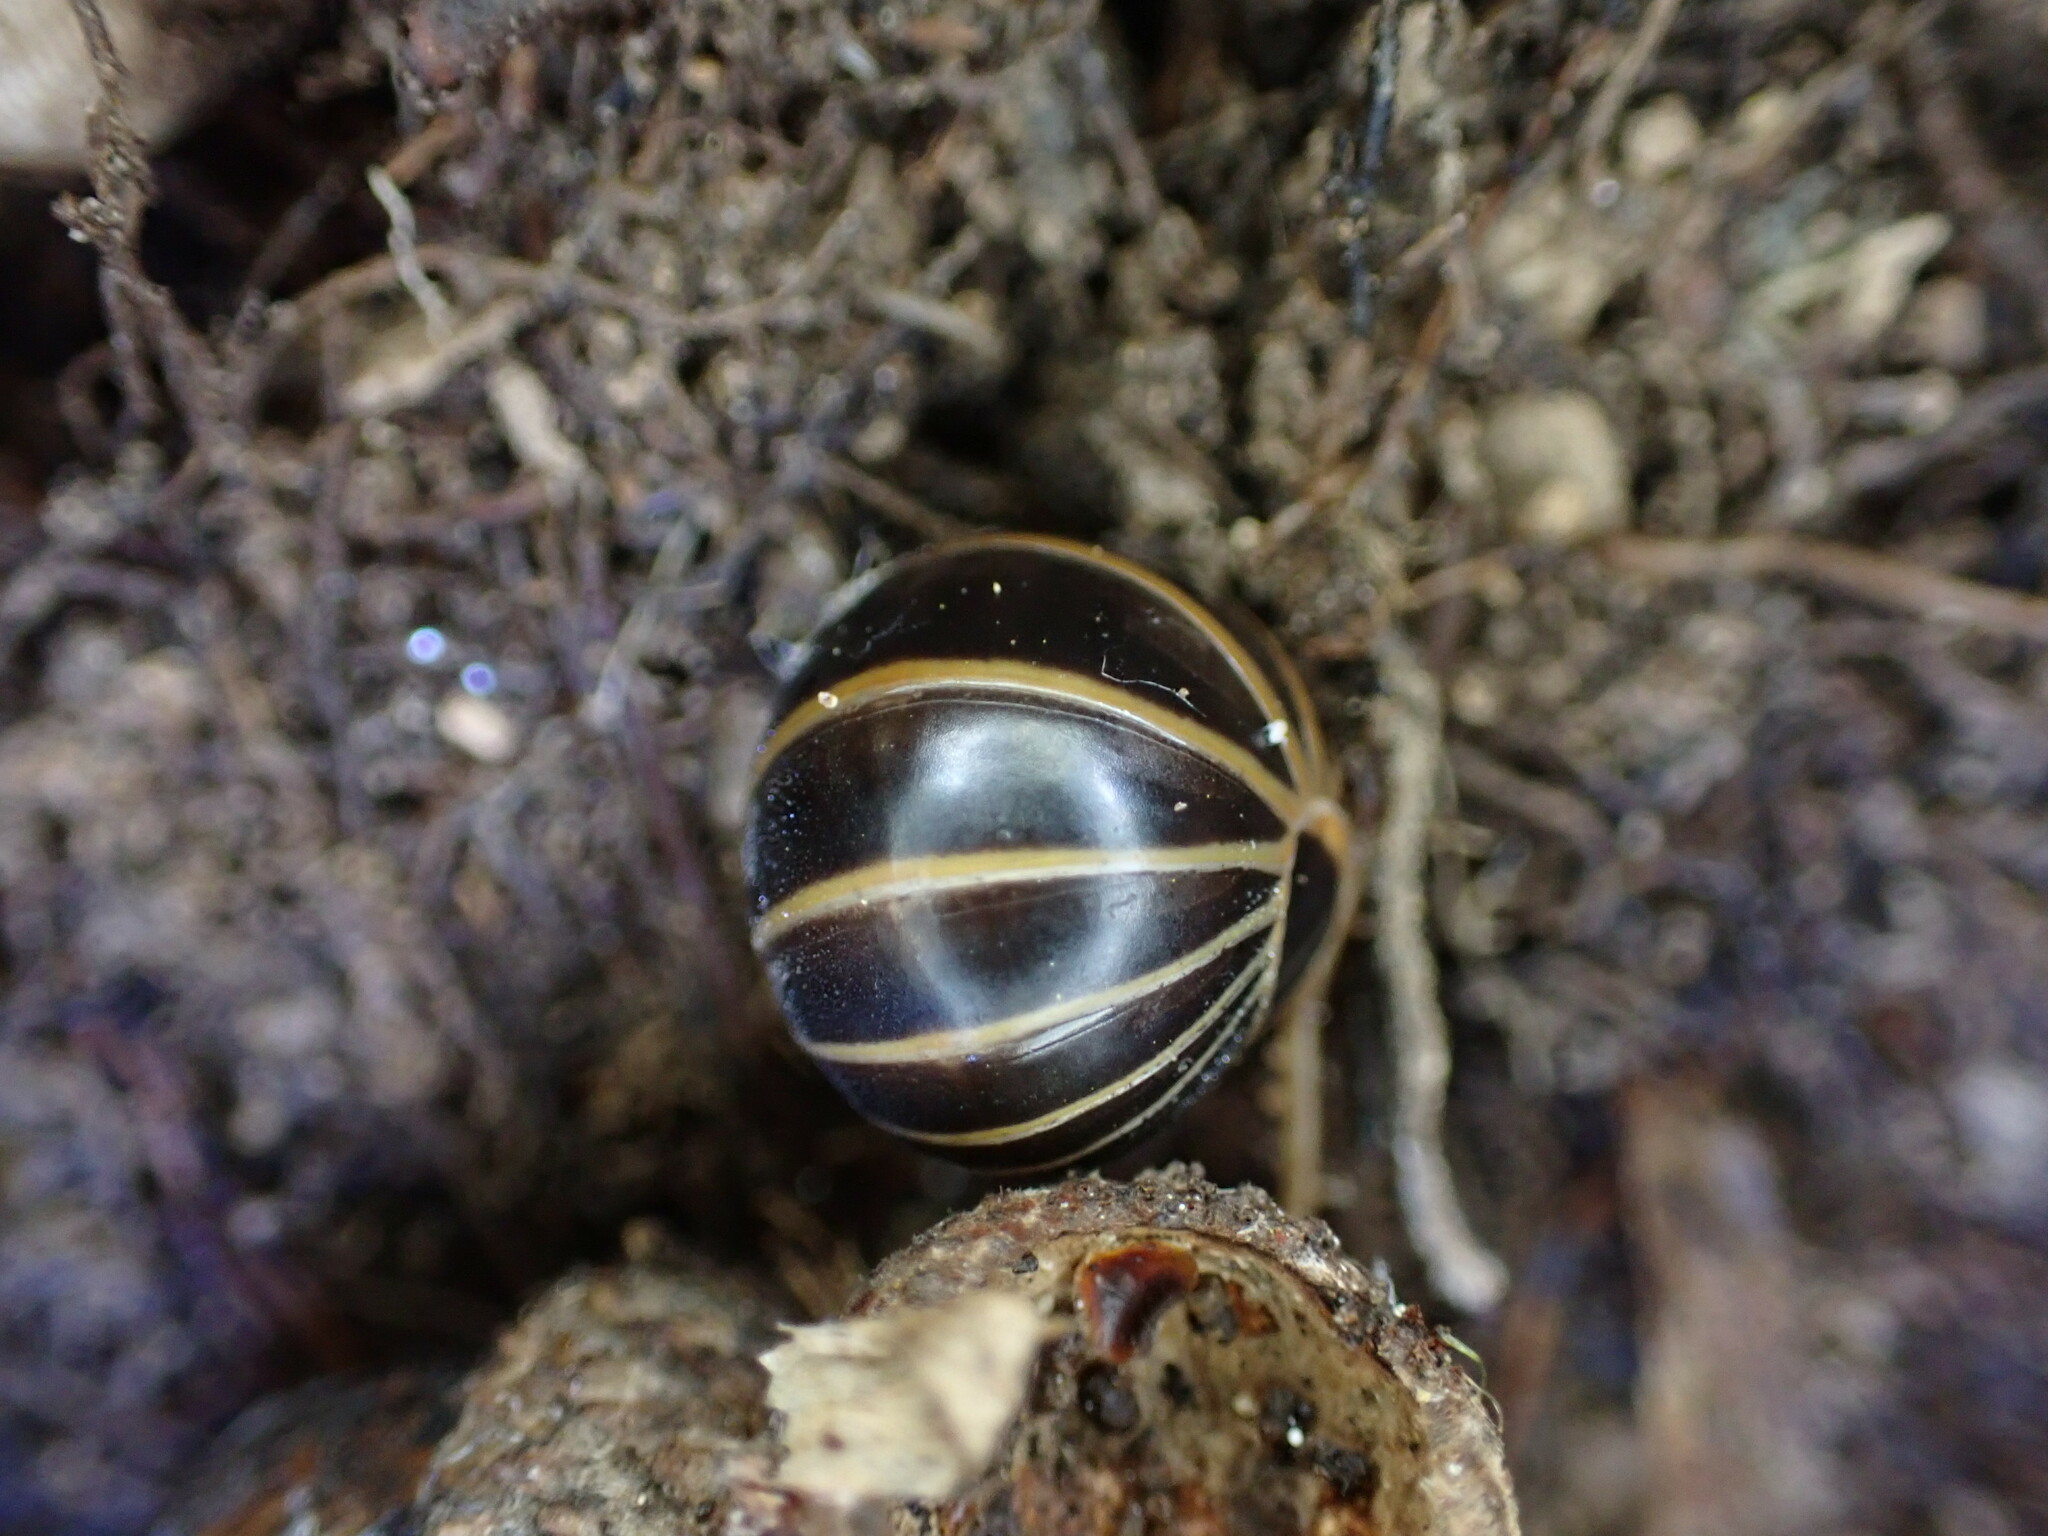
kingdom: Animalia
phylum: Arthropoda
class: Diplopoda
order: Glomerida
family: Glomeridae
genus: Glomeris
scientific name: Glomeris marginata
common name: Bordered pill millipede
